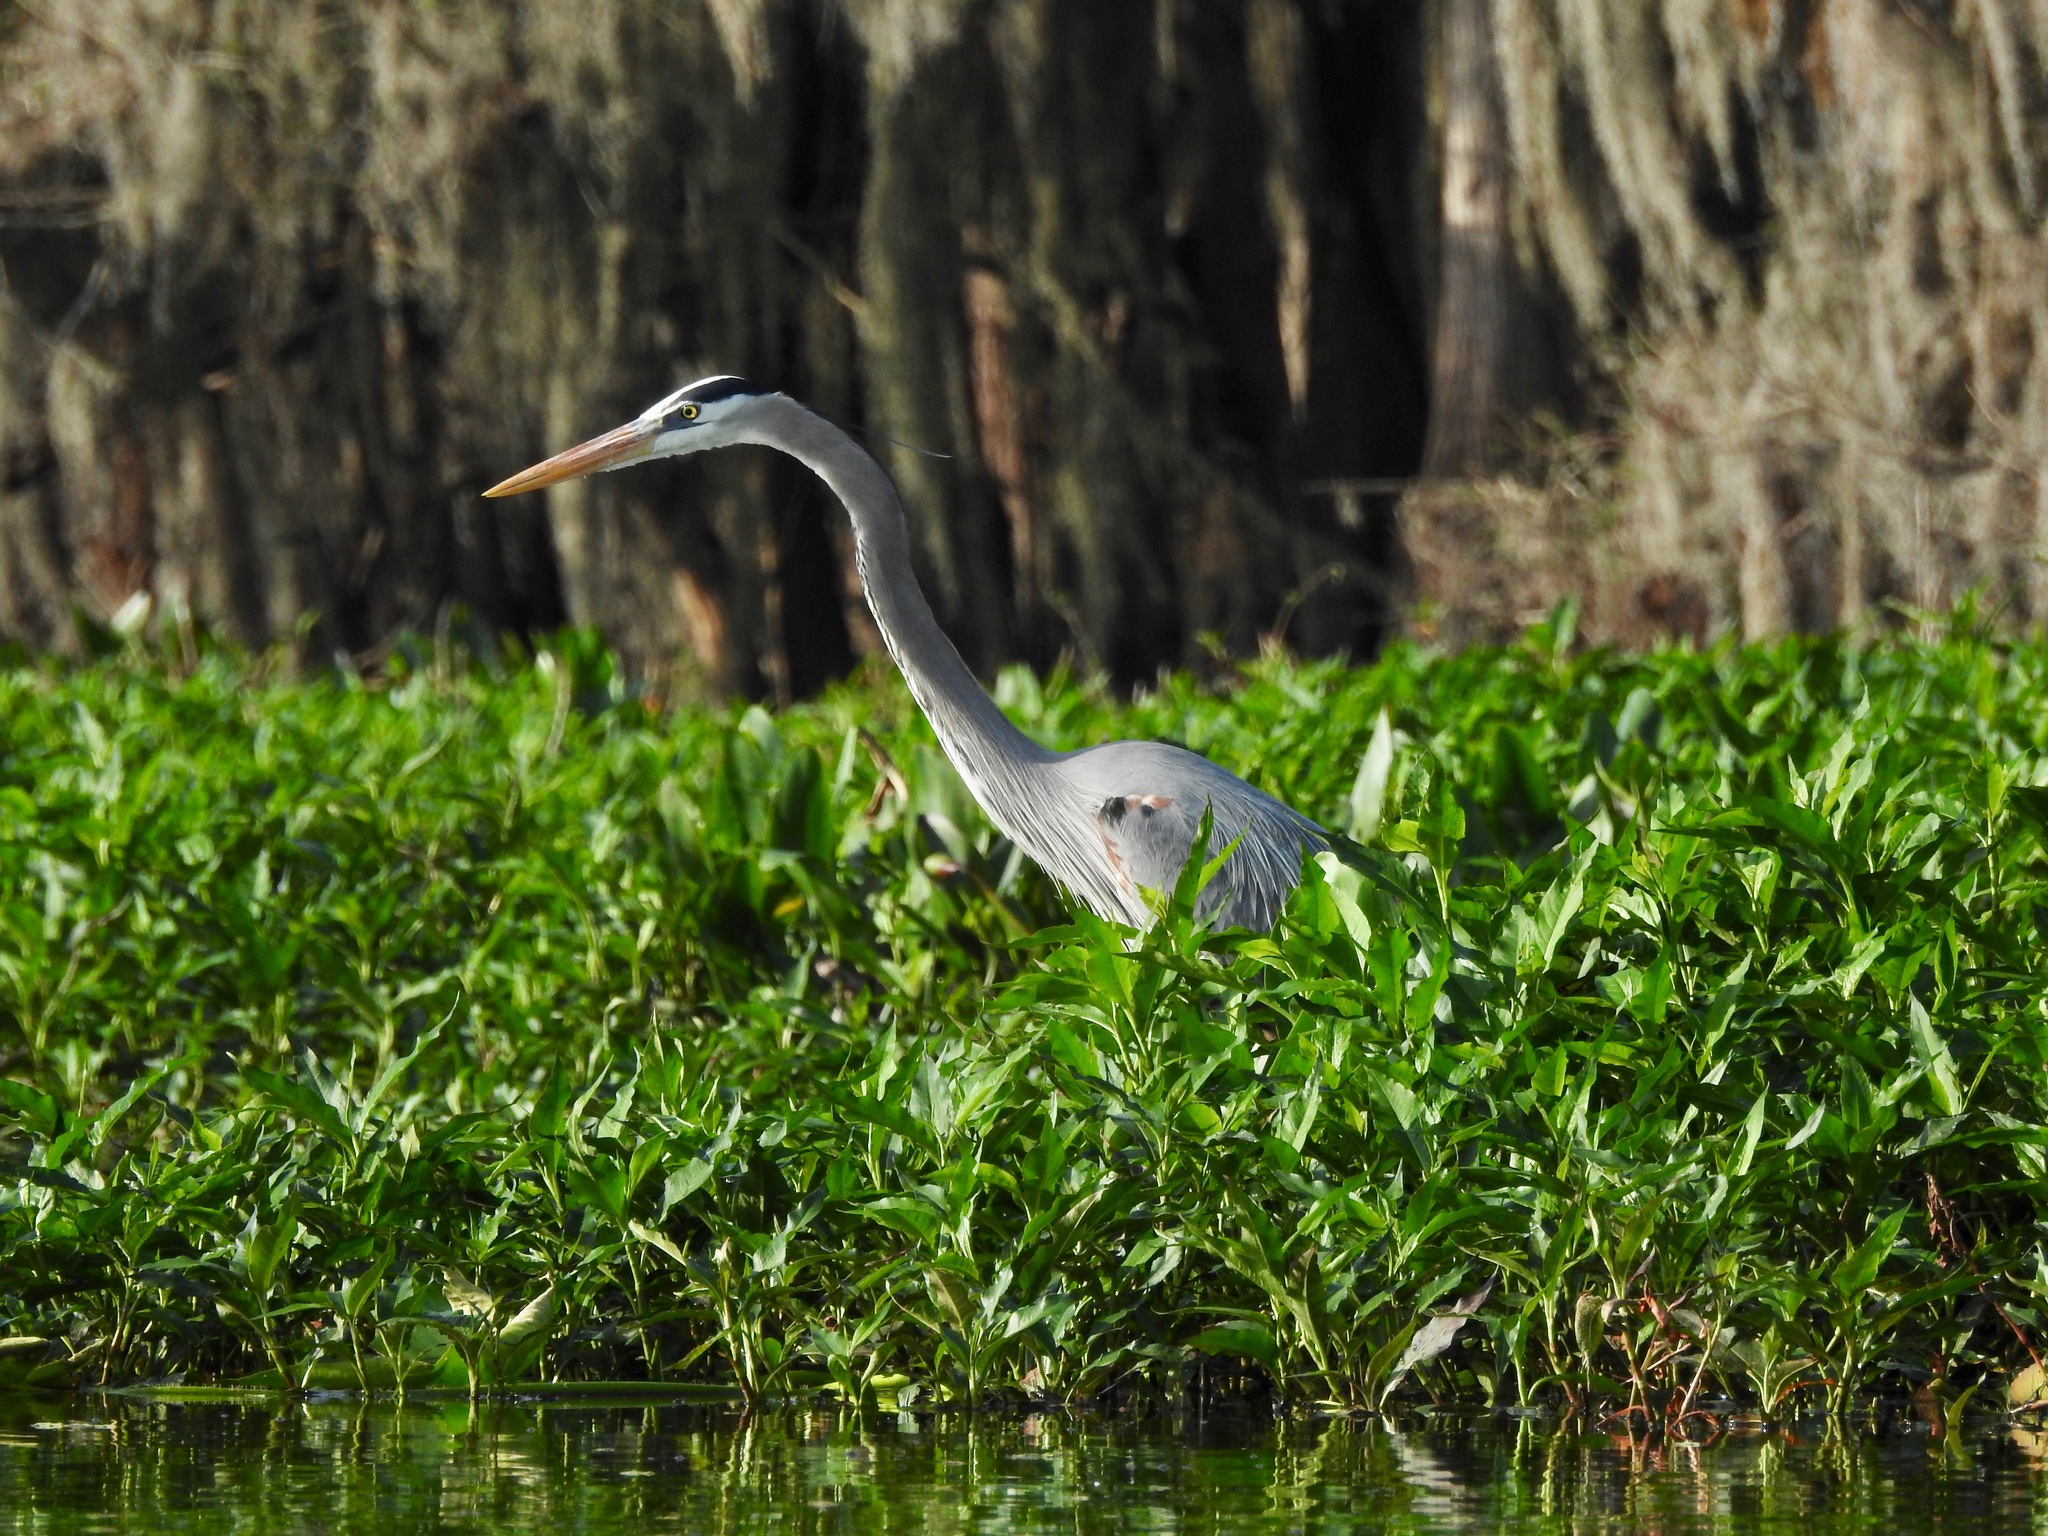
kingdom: Animalia
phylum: Chordata
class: Aves
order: Pelecaniformes
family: Ardeidae
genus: Ardea
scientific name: Ardea herodias
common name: Great blue heron
